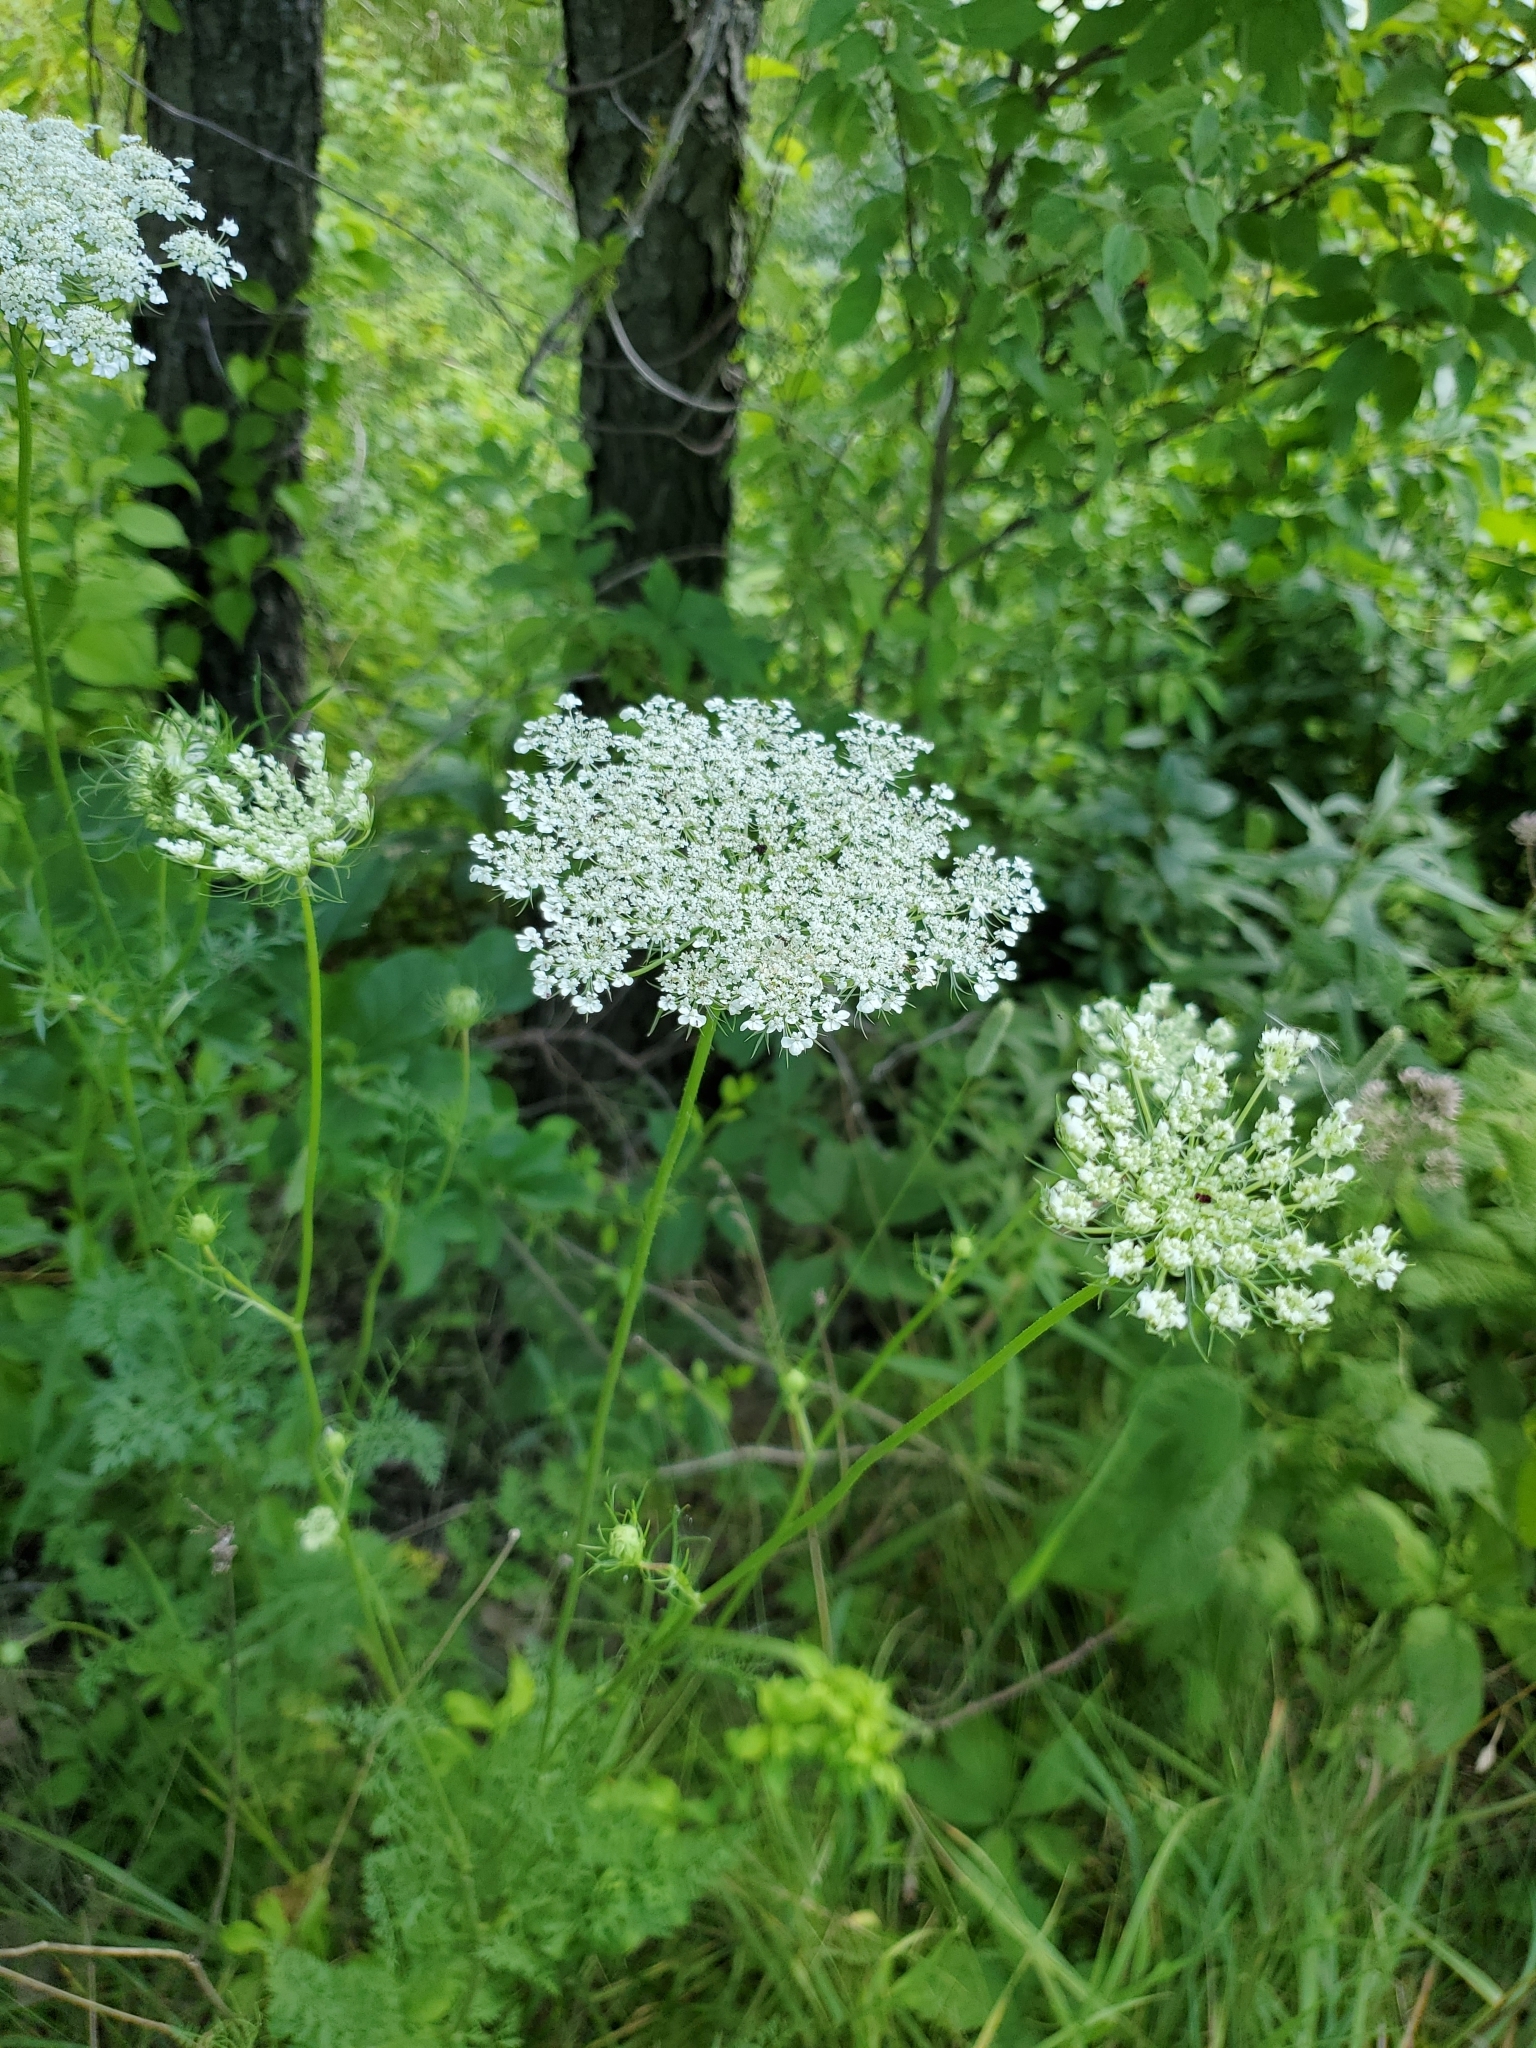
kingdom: Plantae
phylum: Tracheophyta
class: Magnoliopsida
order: Apiales
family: Apiaceae
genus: Daucus
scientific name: Daucus carota
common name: Wild carrot
